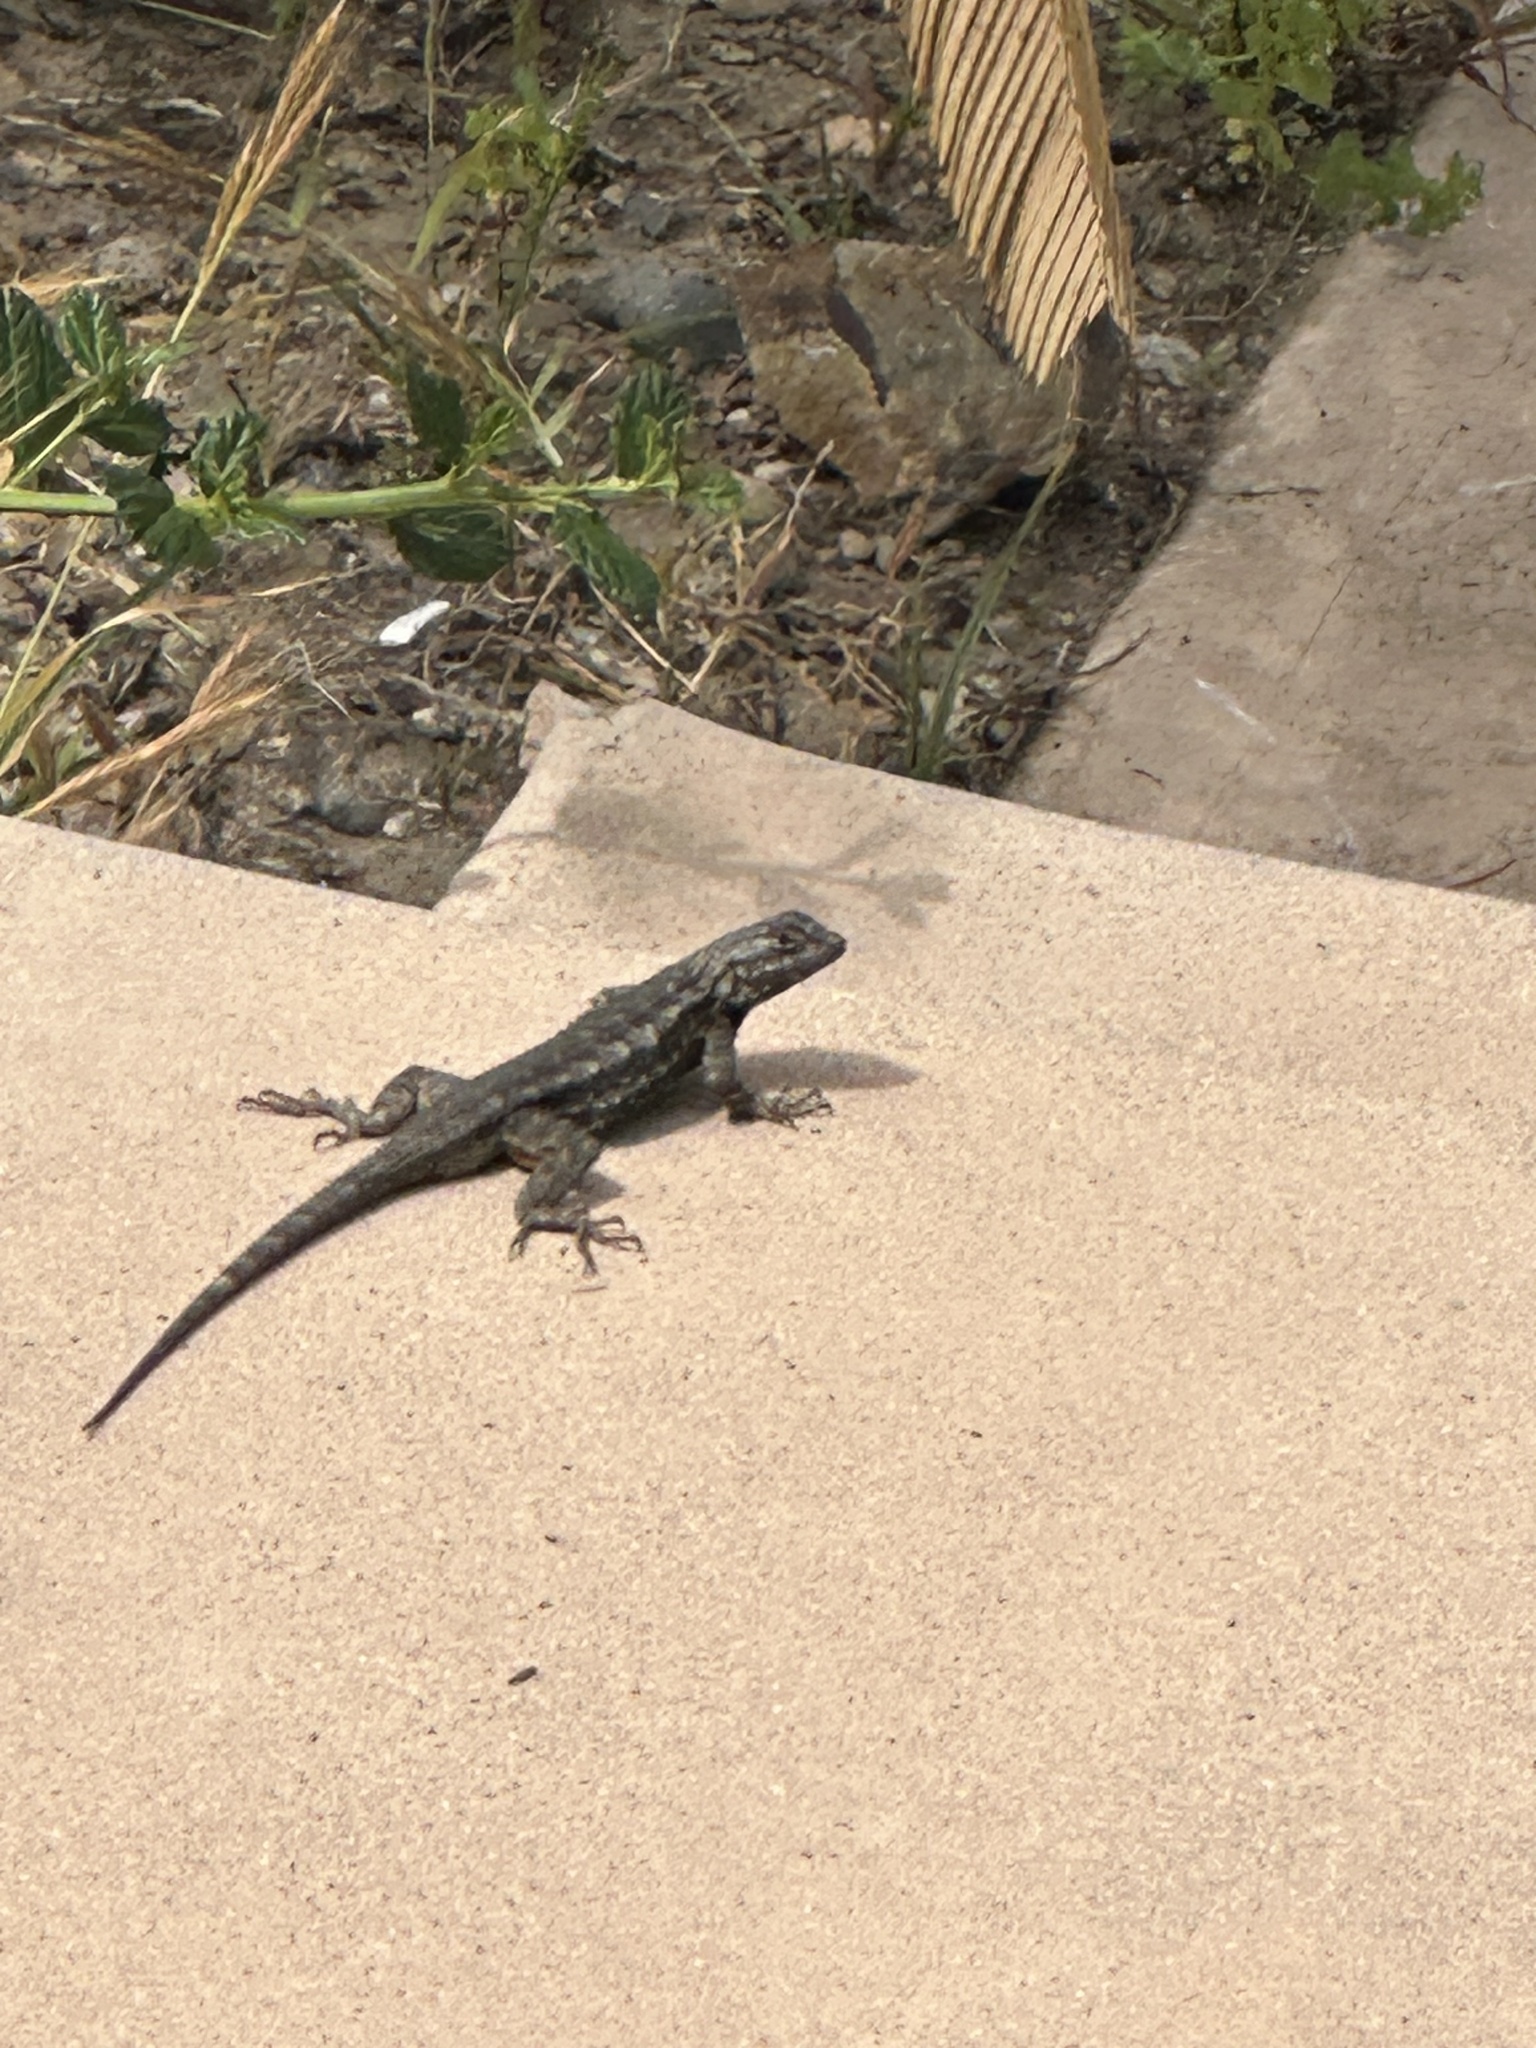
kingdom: Animalia
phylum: Chordata
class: Squamata
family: Phrynosomatidae
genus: Sceloporus
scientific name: Sceloporus occidentalis
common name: Western fence lizard
